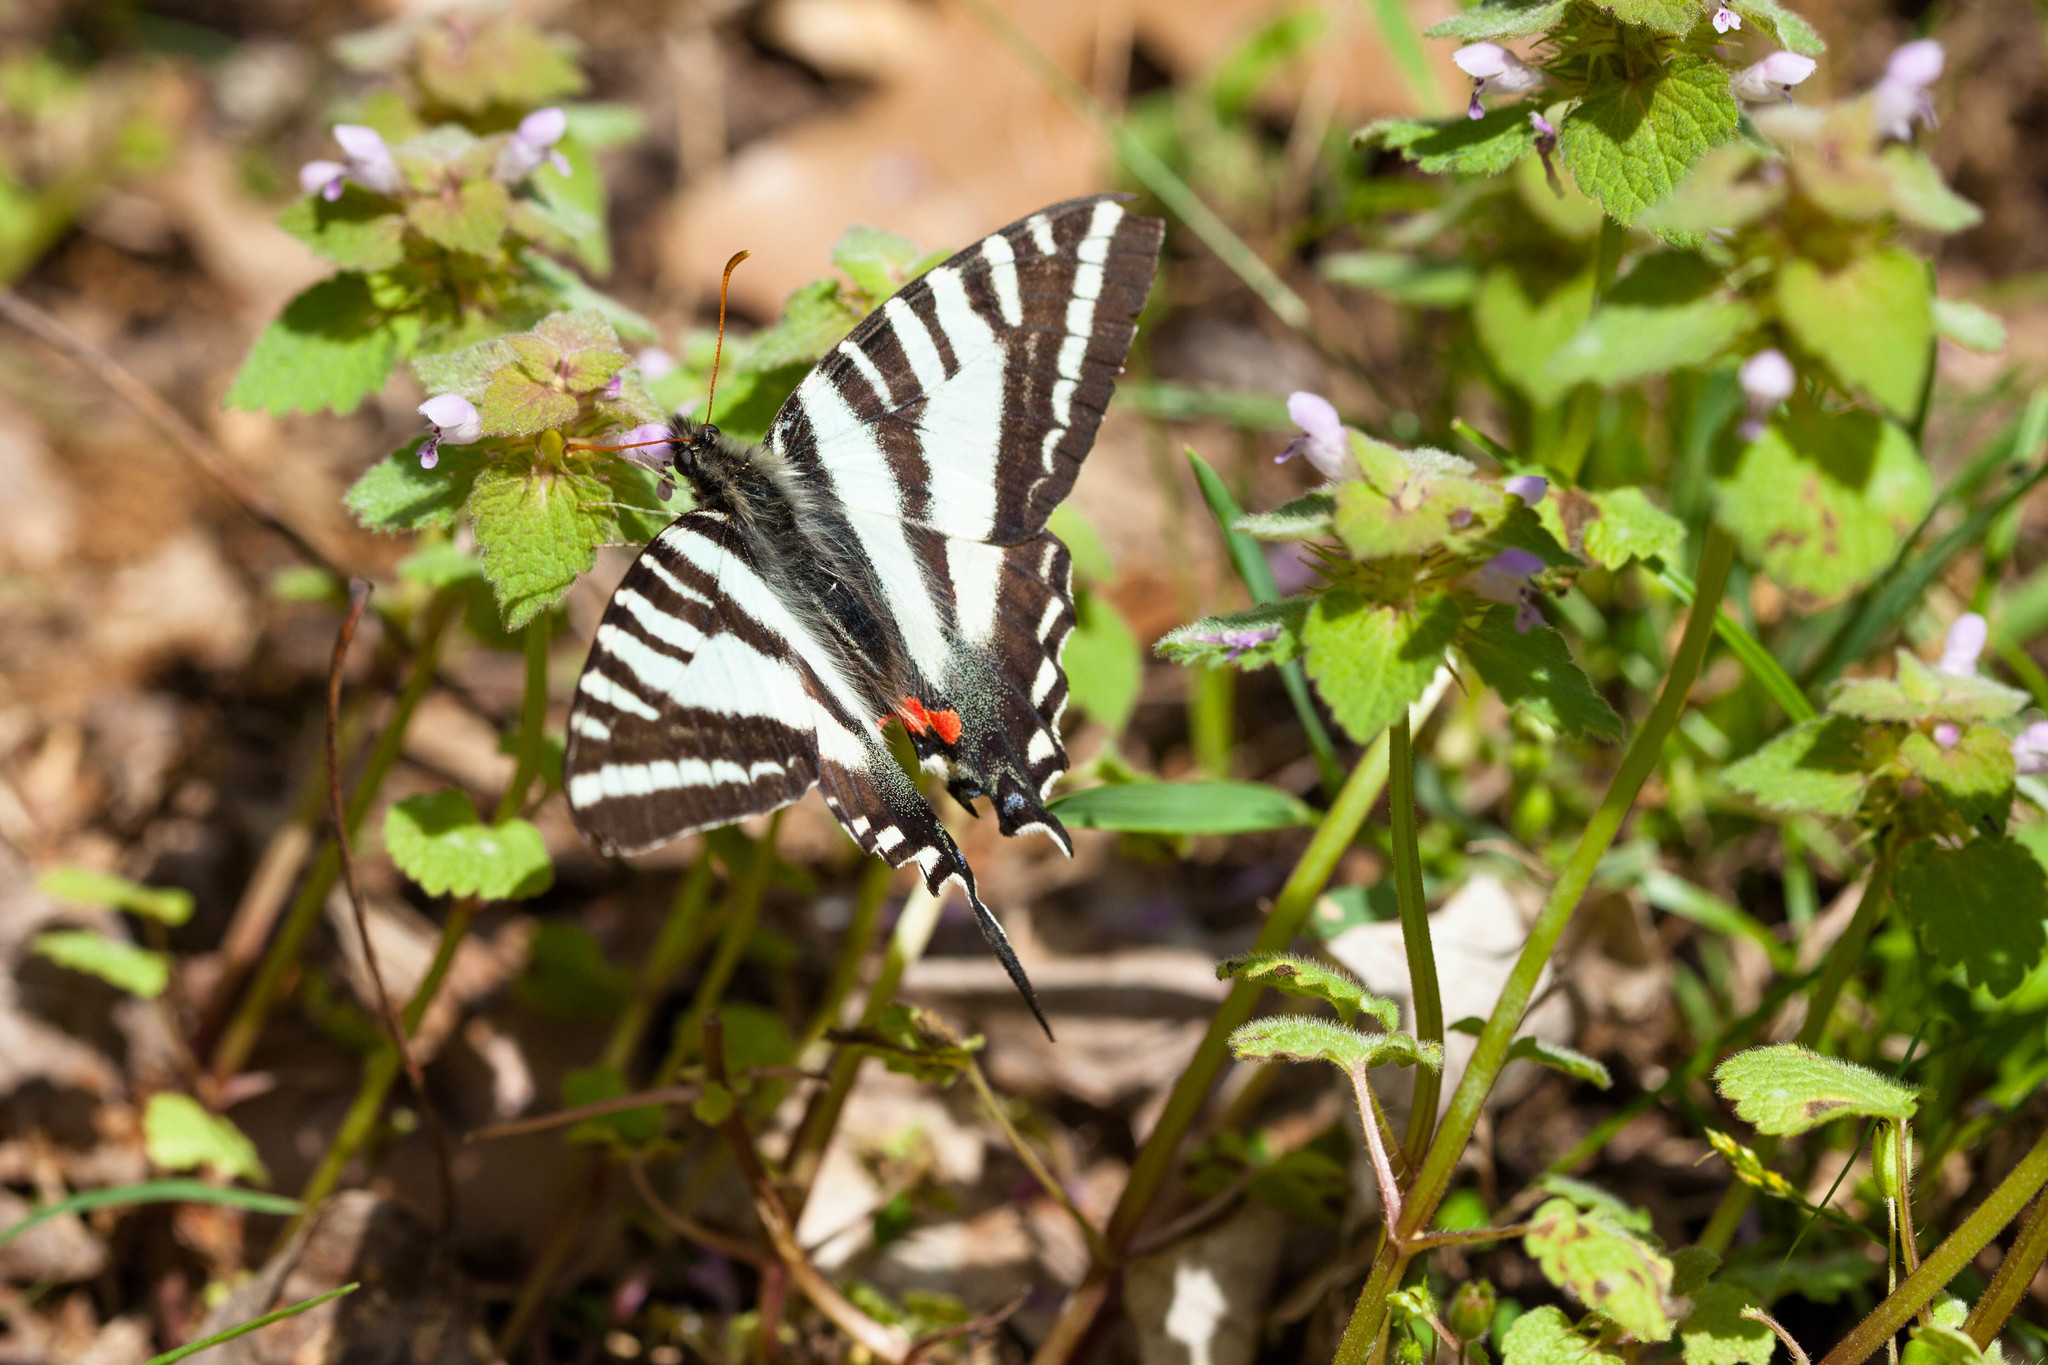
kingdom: Animalia
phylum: Arthropoda
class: Insecta
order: Lepidoptera
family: Papilionidae
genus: Protographium
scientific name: Protographium marcellus
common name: Zebra swallowtail
